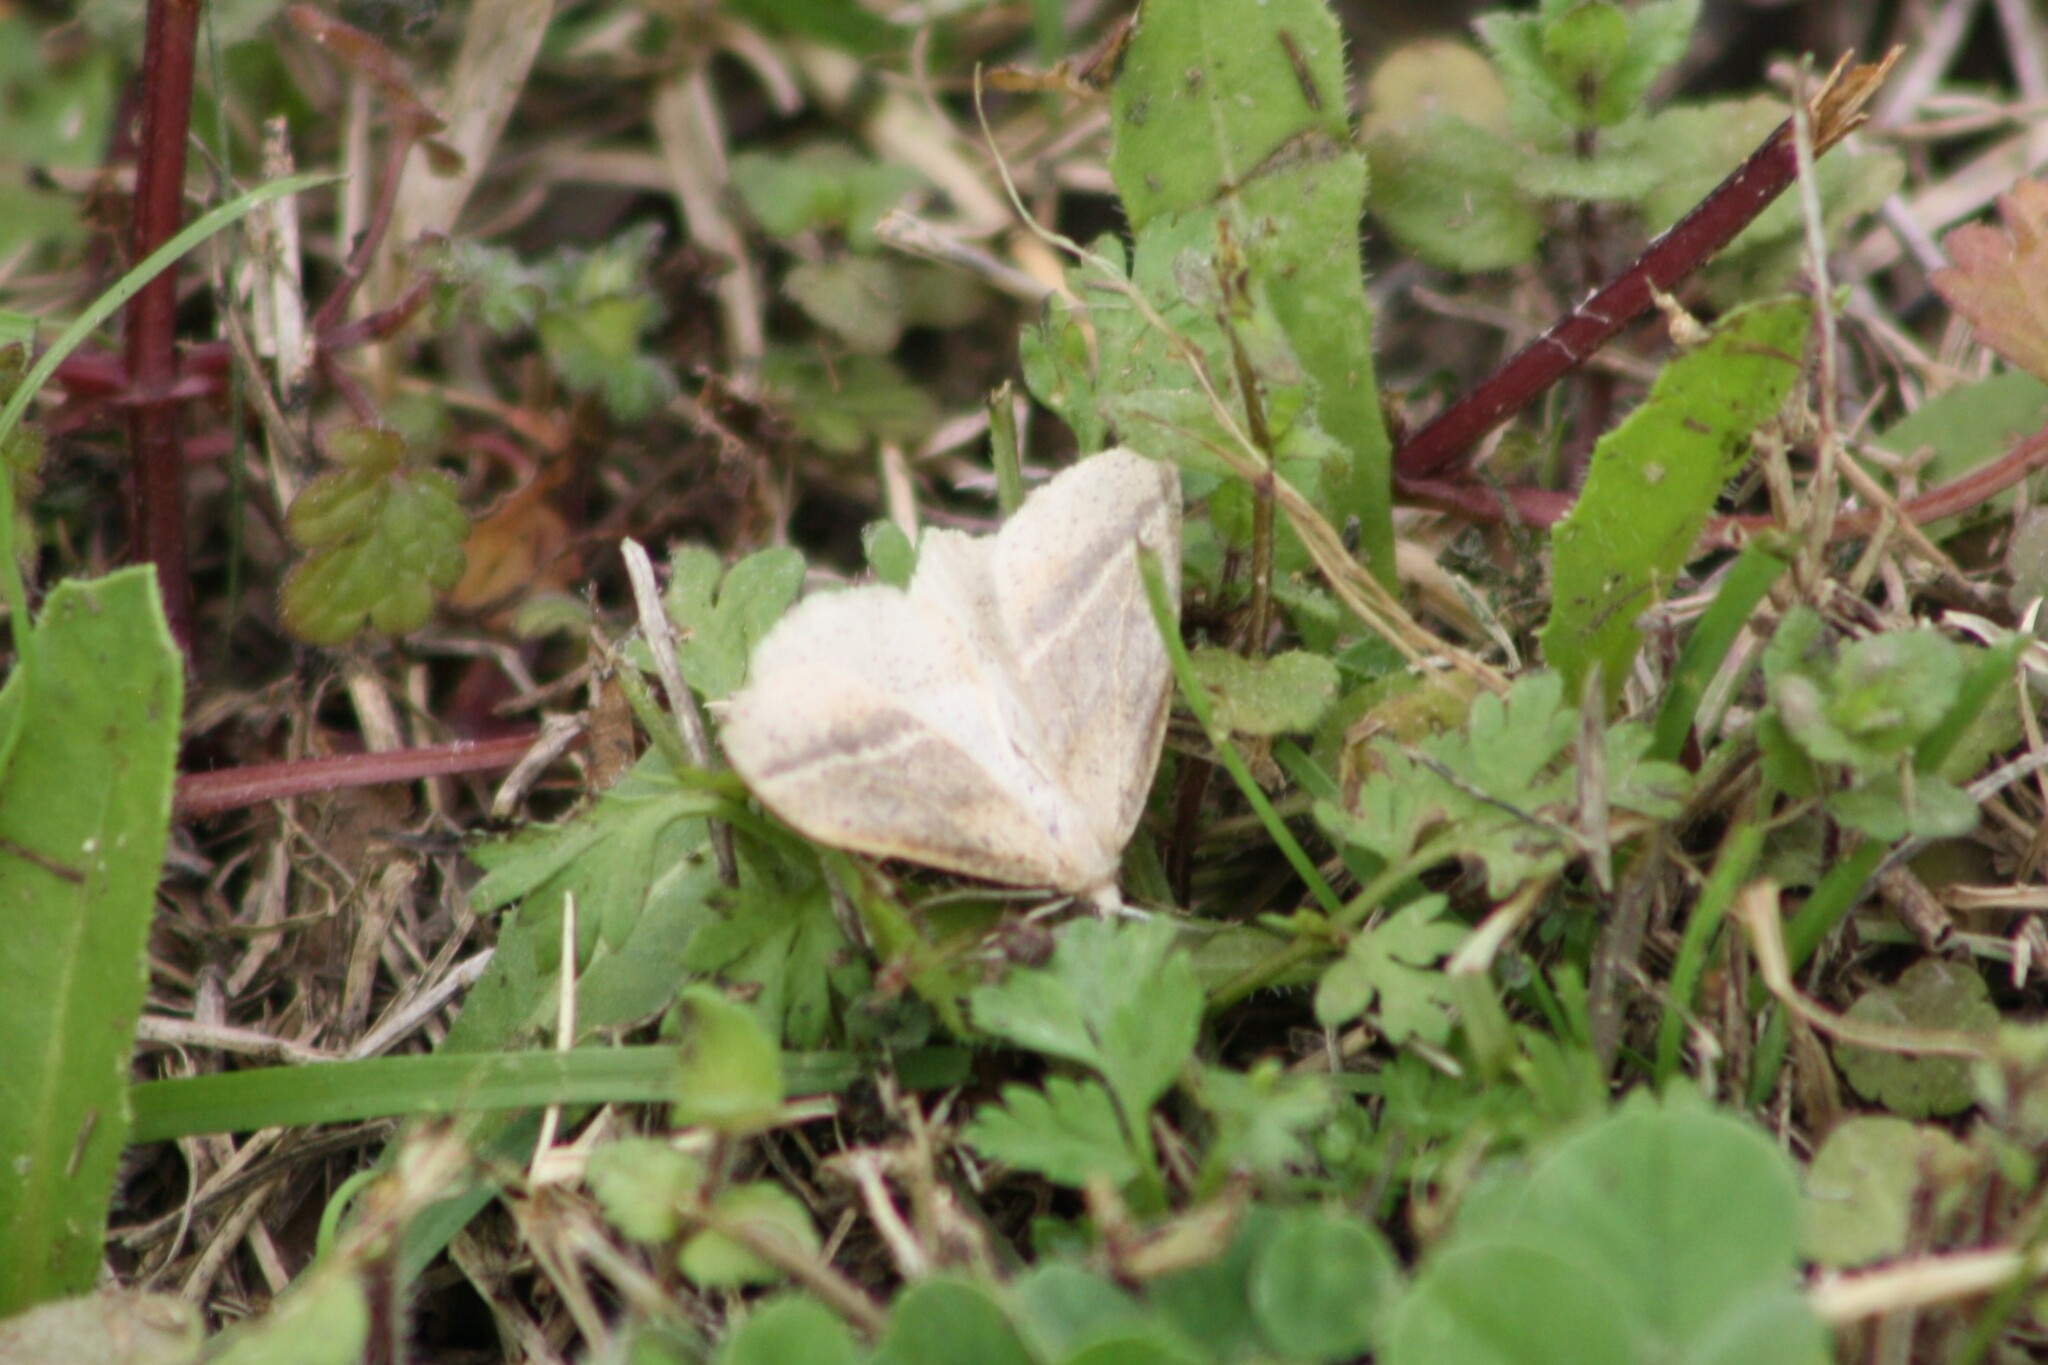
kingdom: Animalia
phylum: Arthropoda
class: Insecta
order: Lepidoptera
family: Geometridae
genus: Lychnosea
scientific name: Lychnosea intermicata
